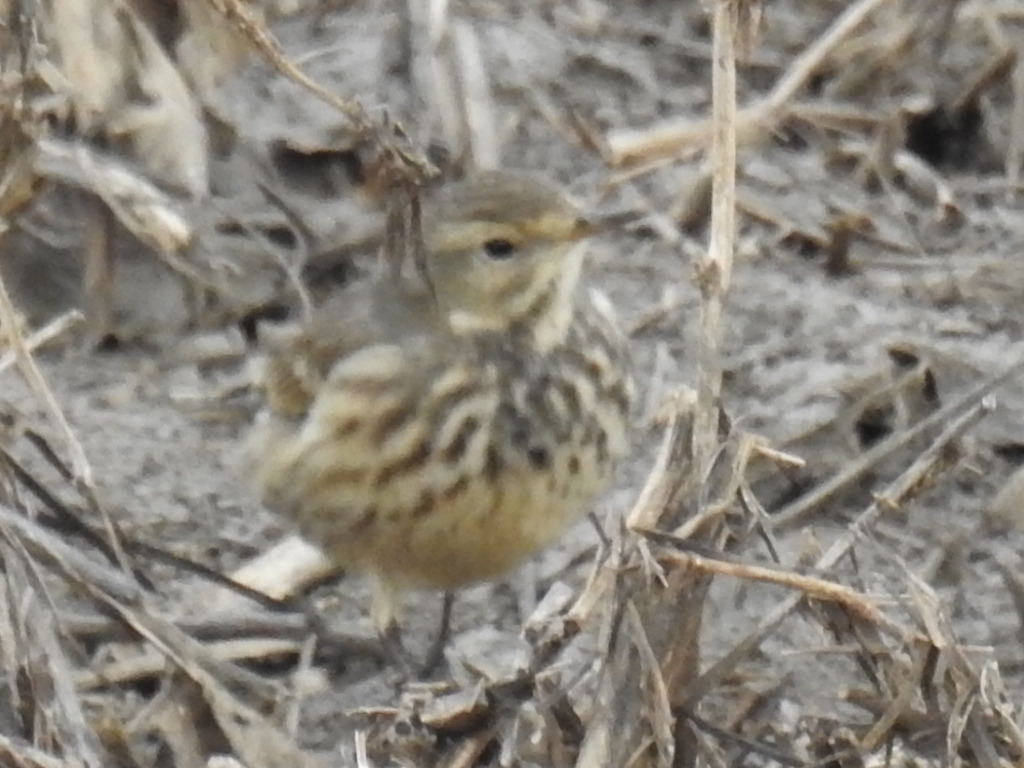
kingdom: Animalia
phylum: Chordata
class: Aves
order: Passeriformes
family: Motacillidae
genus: Anthus
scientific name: Anthus rubescens
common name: Buff-bellied pipit
